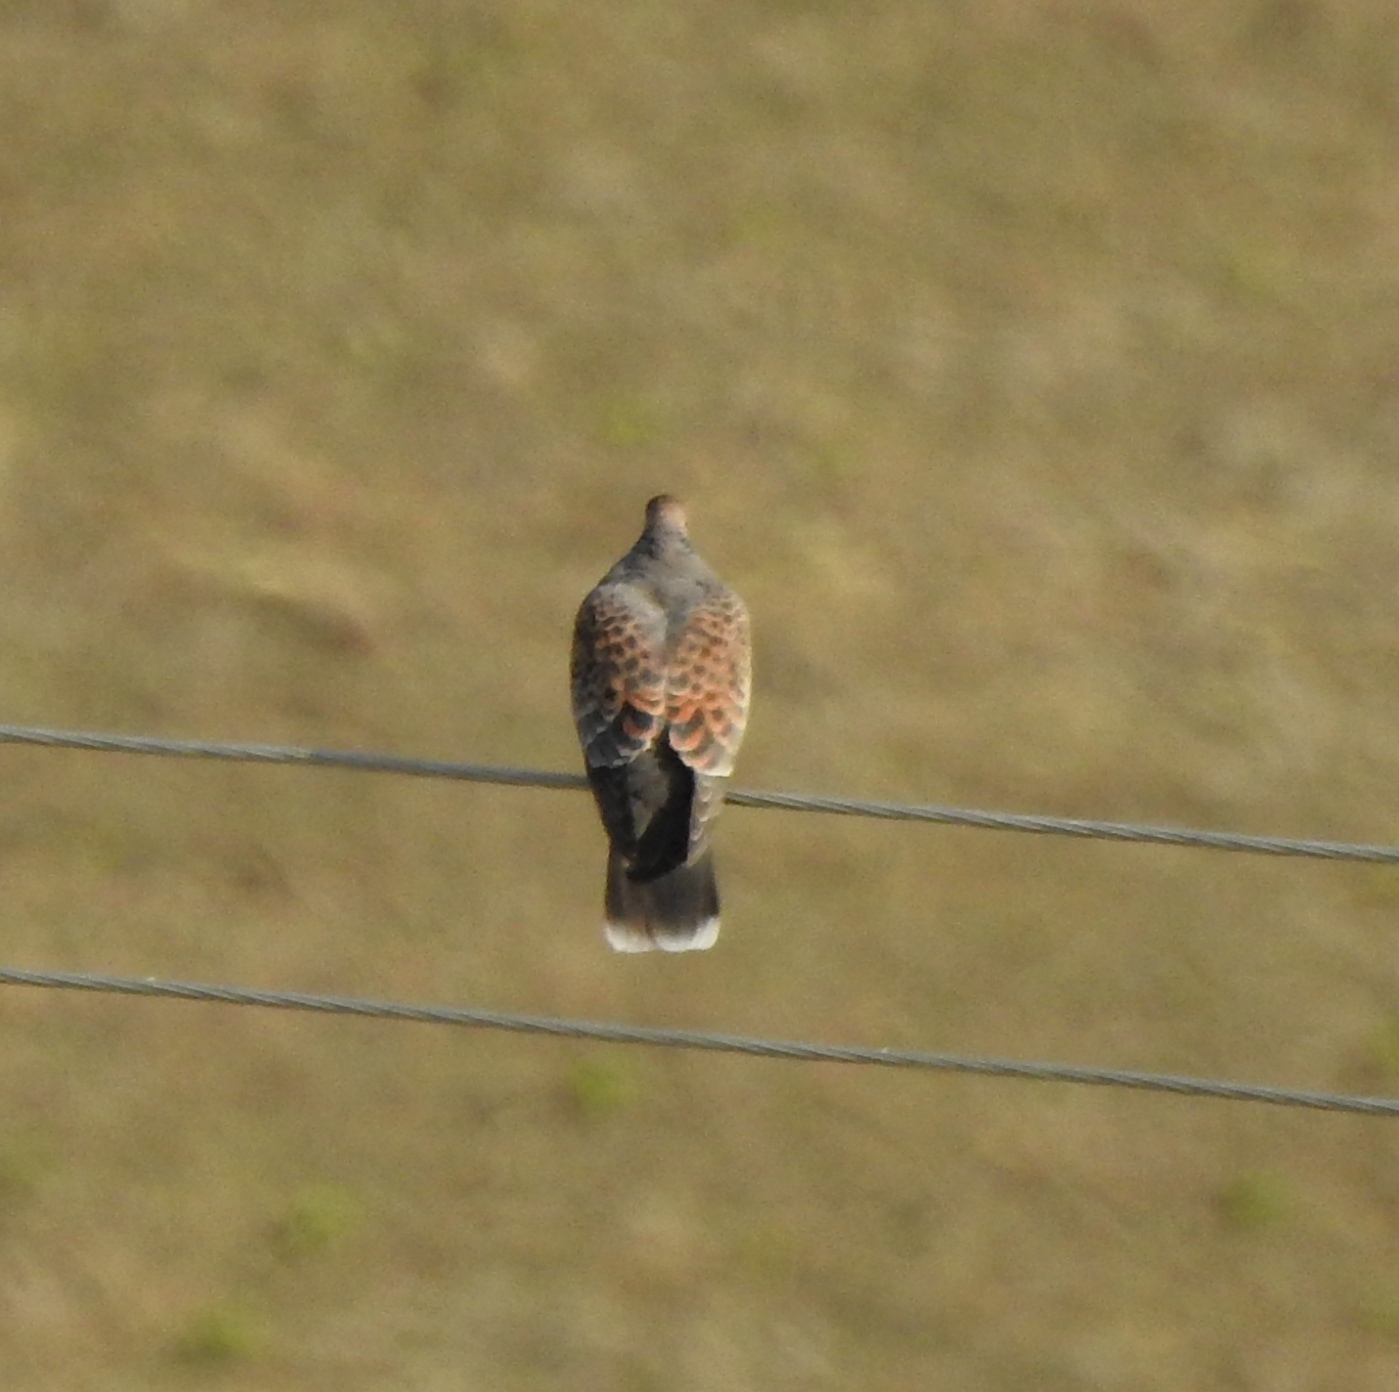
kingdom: Animalia
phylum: Chordata
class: Aves
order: Columbiformes
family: Columbidae
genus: Streptopelia
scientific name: Streptopelia orientalis
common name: Oriental turtle dove
